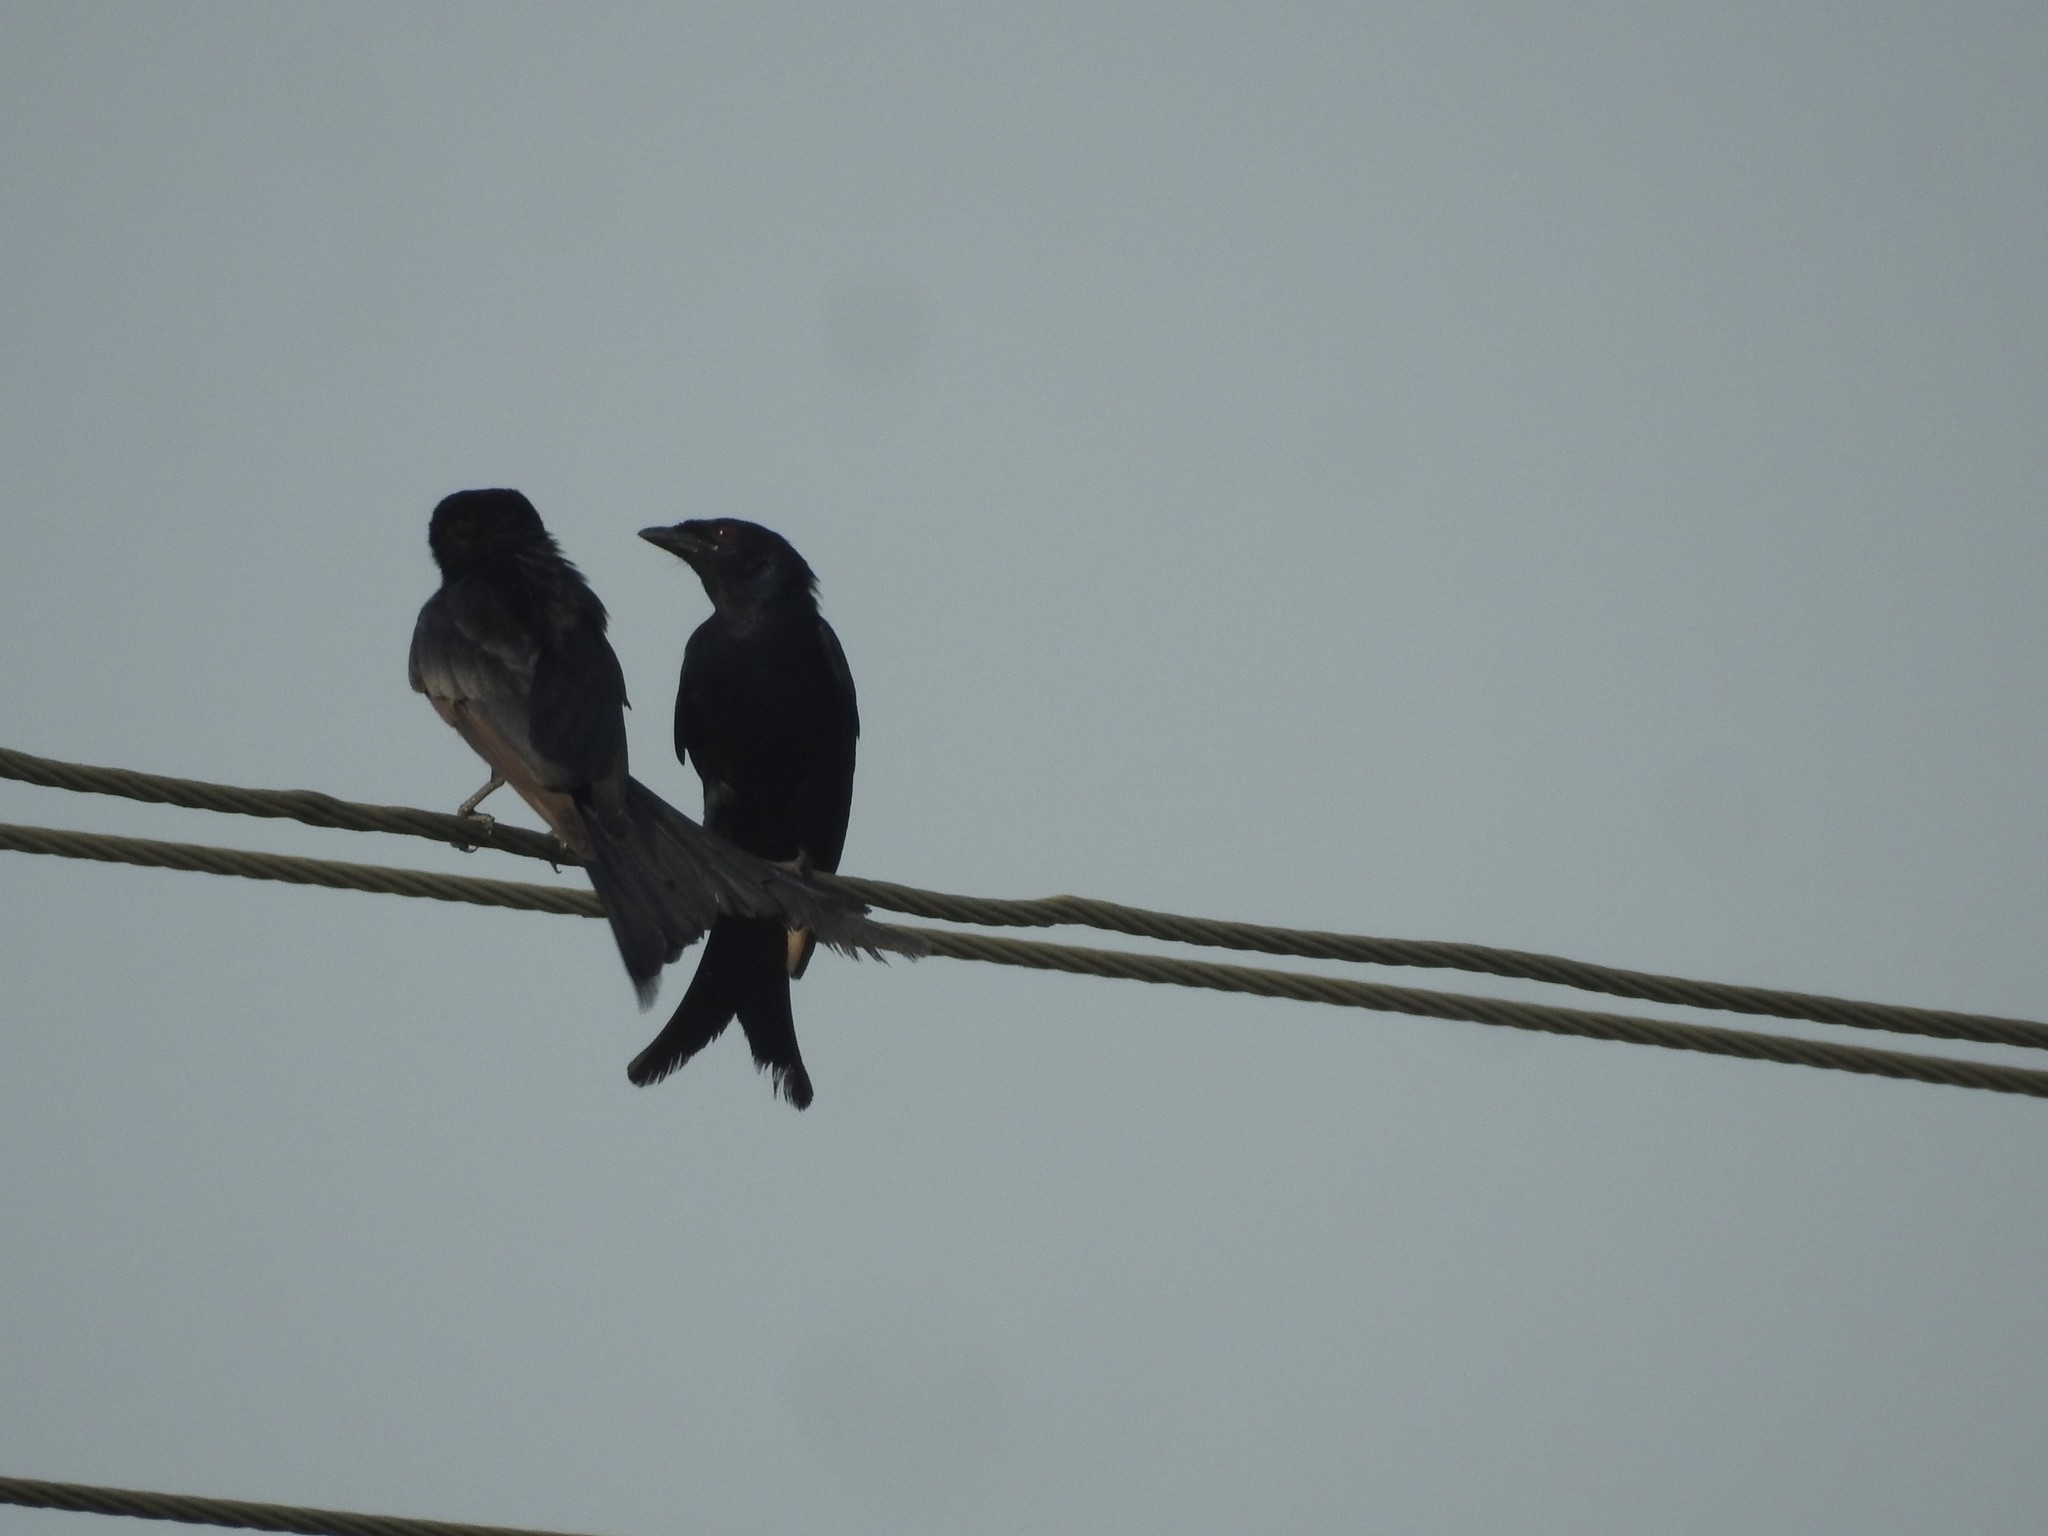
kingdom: Animalia
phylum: Chordata
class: Aves
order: Passeriformes
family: Dicruridae
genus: Dicrurus
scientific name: Dicrurus macrocercus
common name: Black drongo
